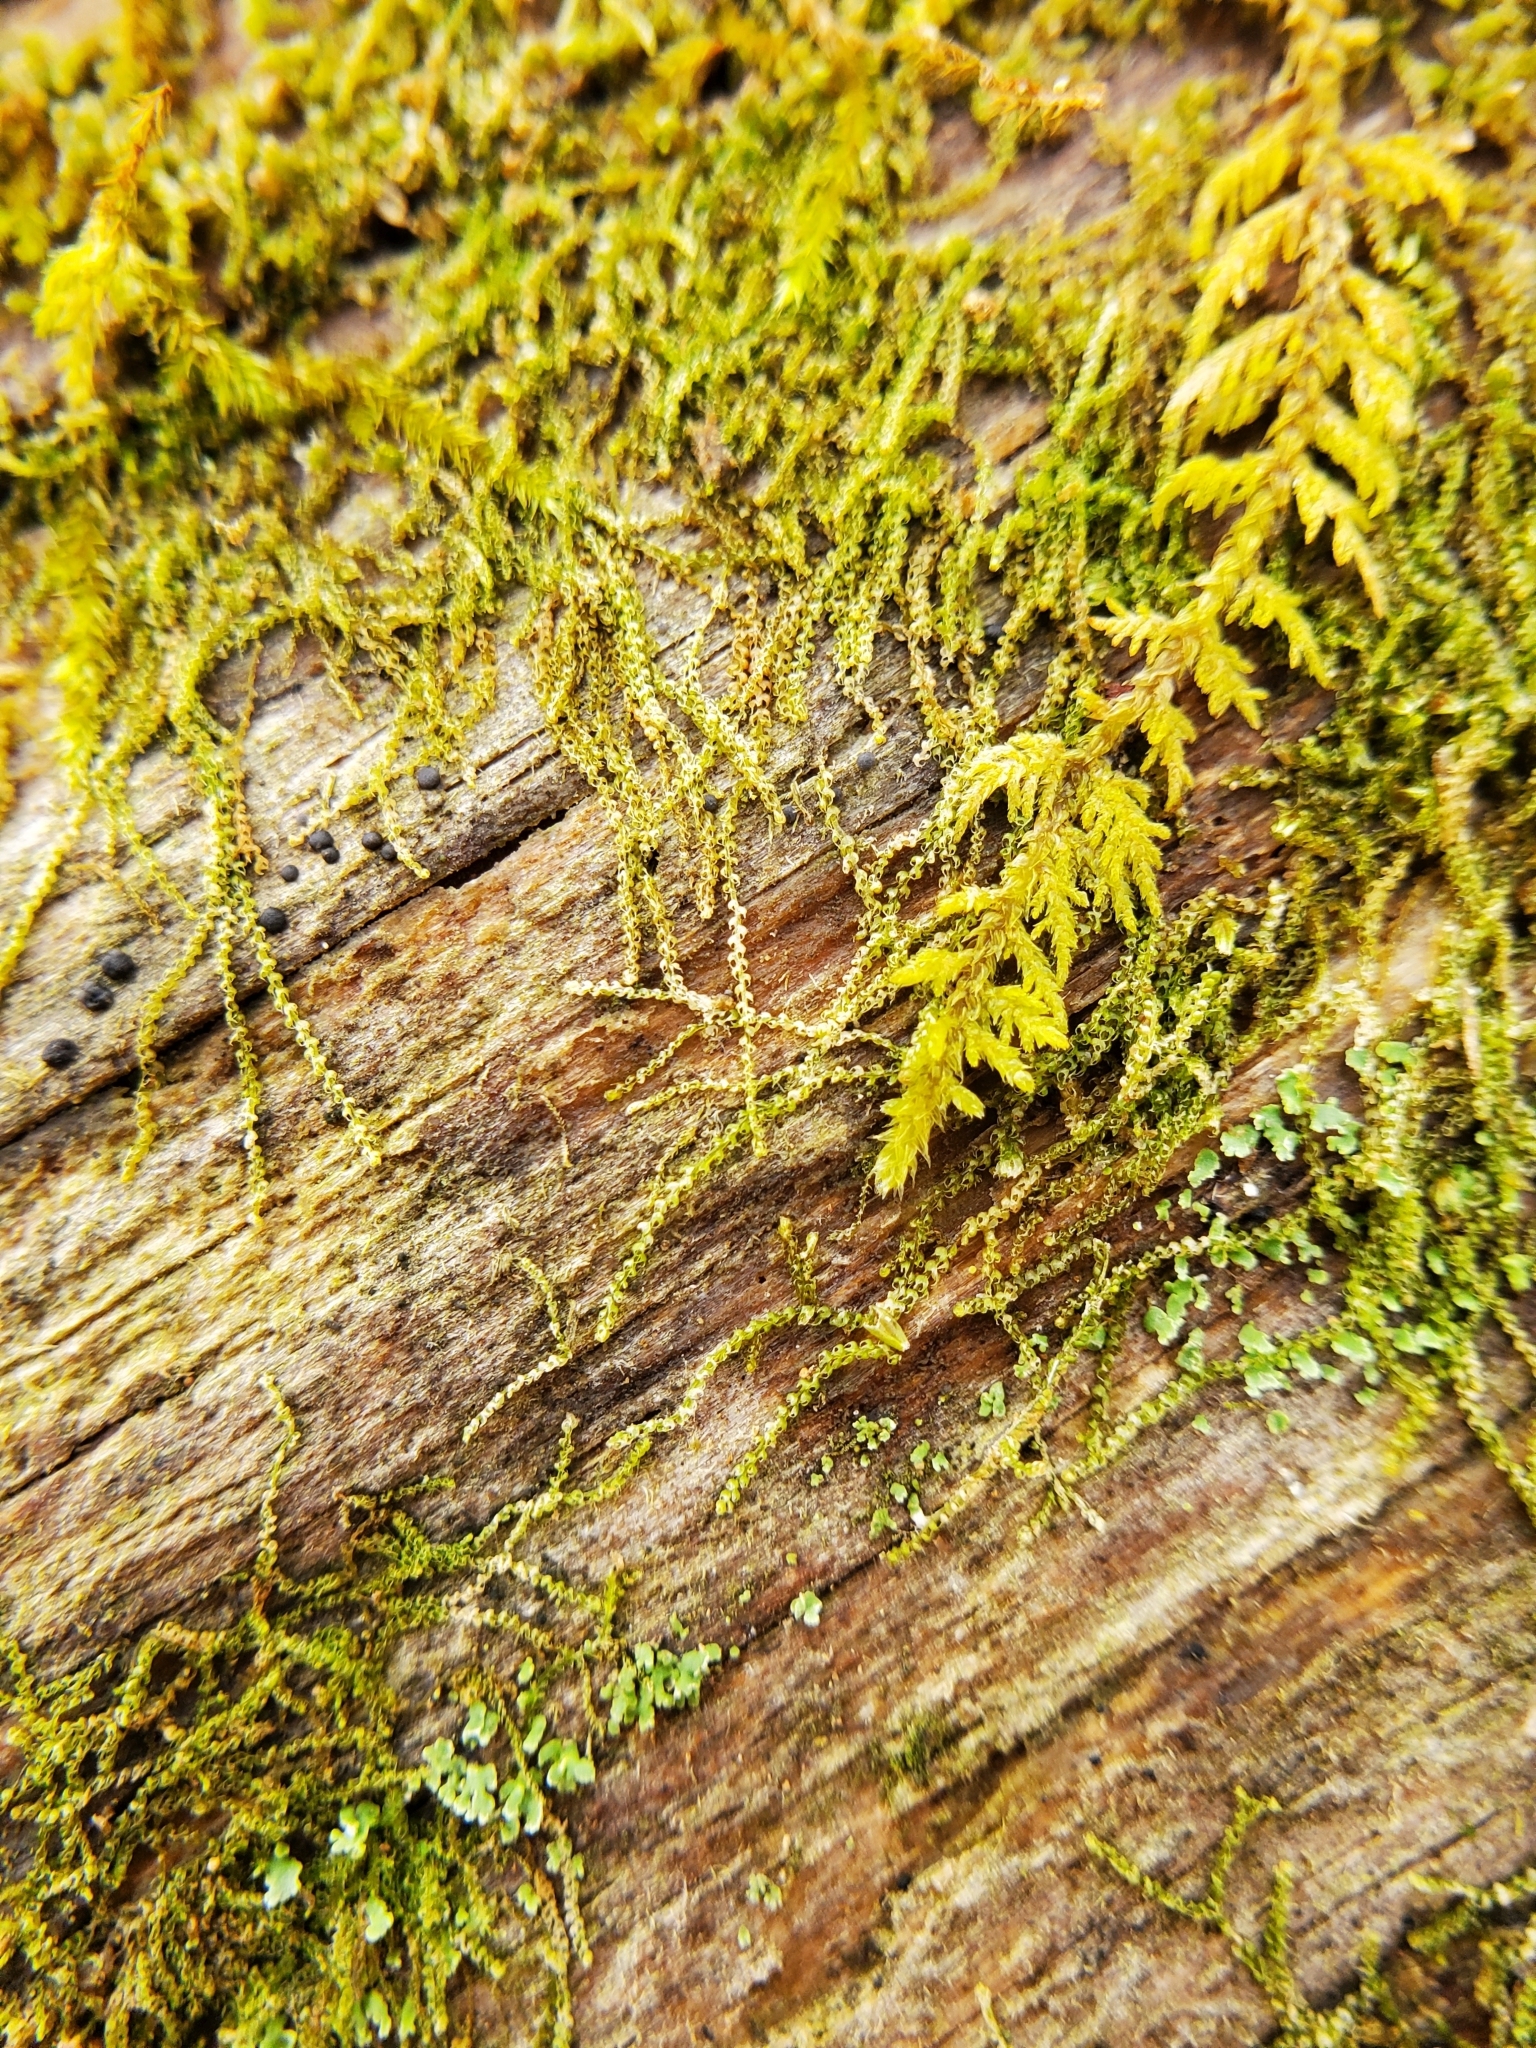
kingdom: Plantae
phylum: Marchantiophyta
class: Jungermanniopsida
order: Jungermanniales
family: Cephaloziaceae
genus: Nowellia
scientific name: Nowellia curvifolia
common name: Wood rustwort
